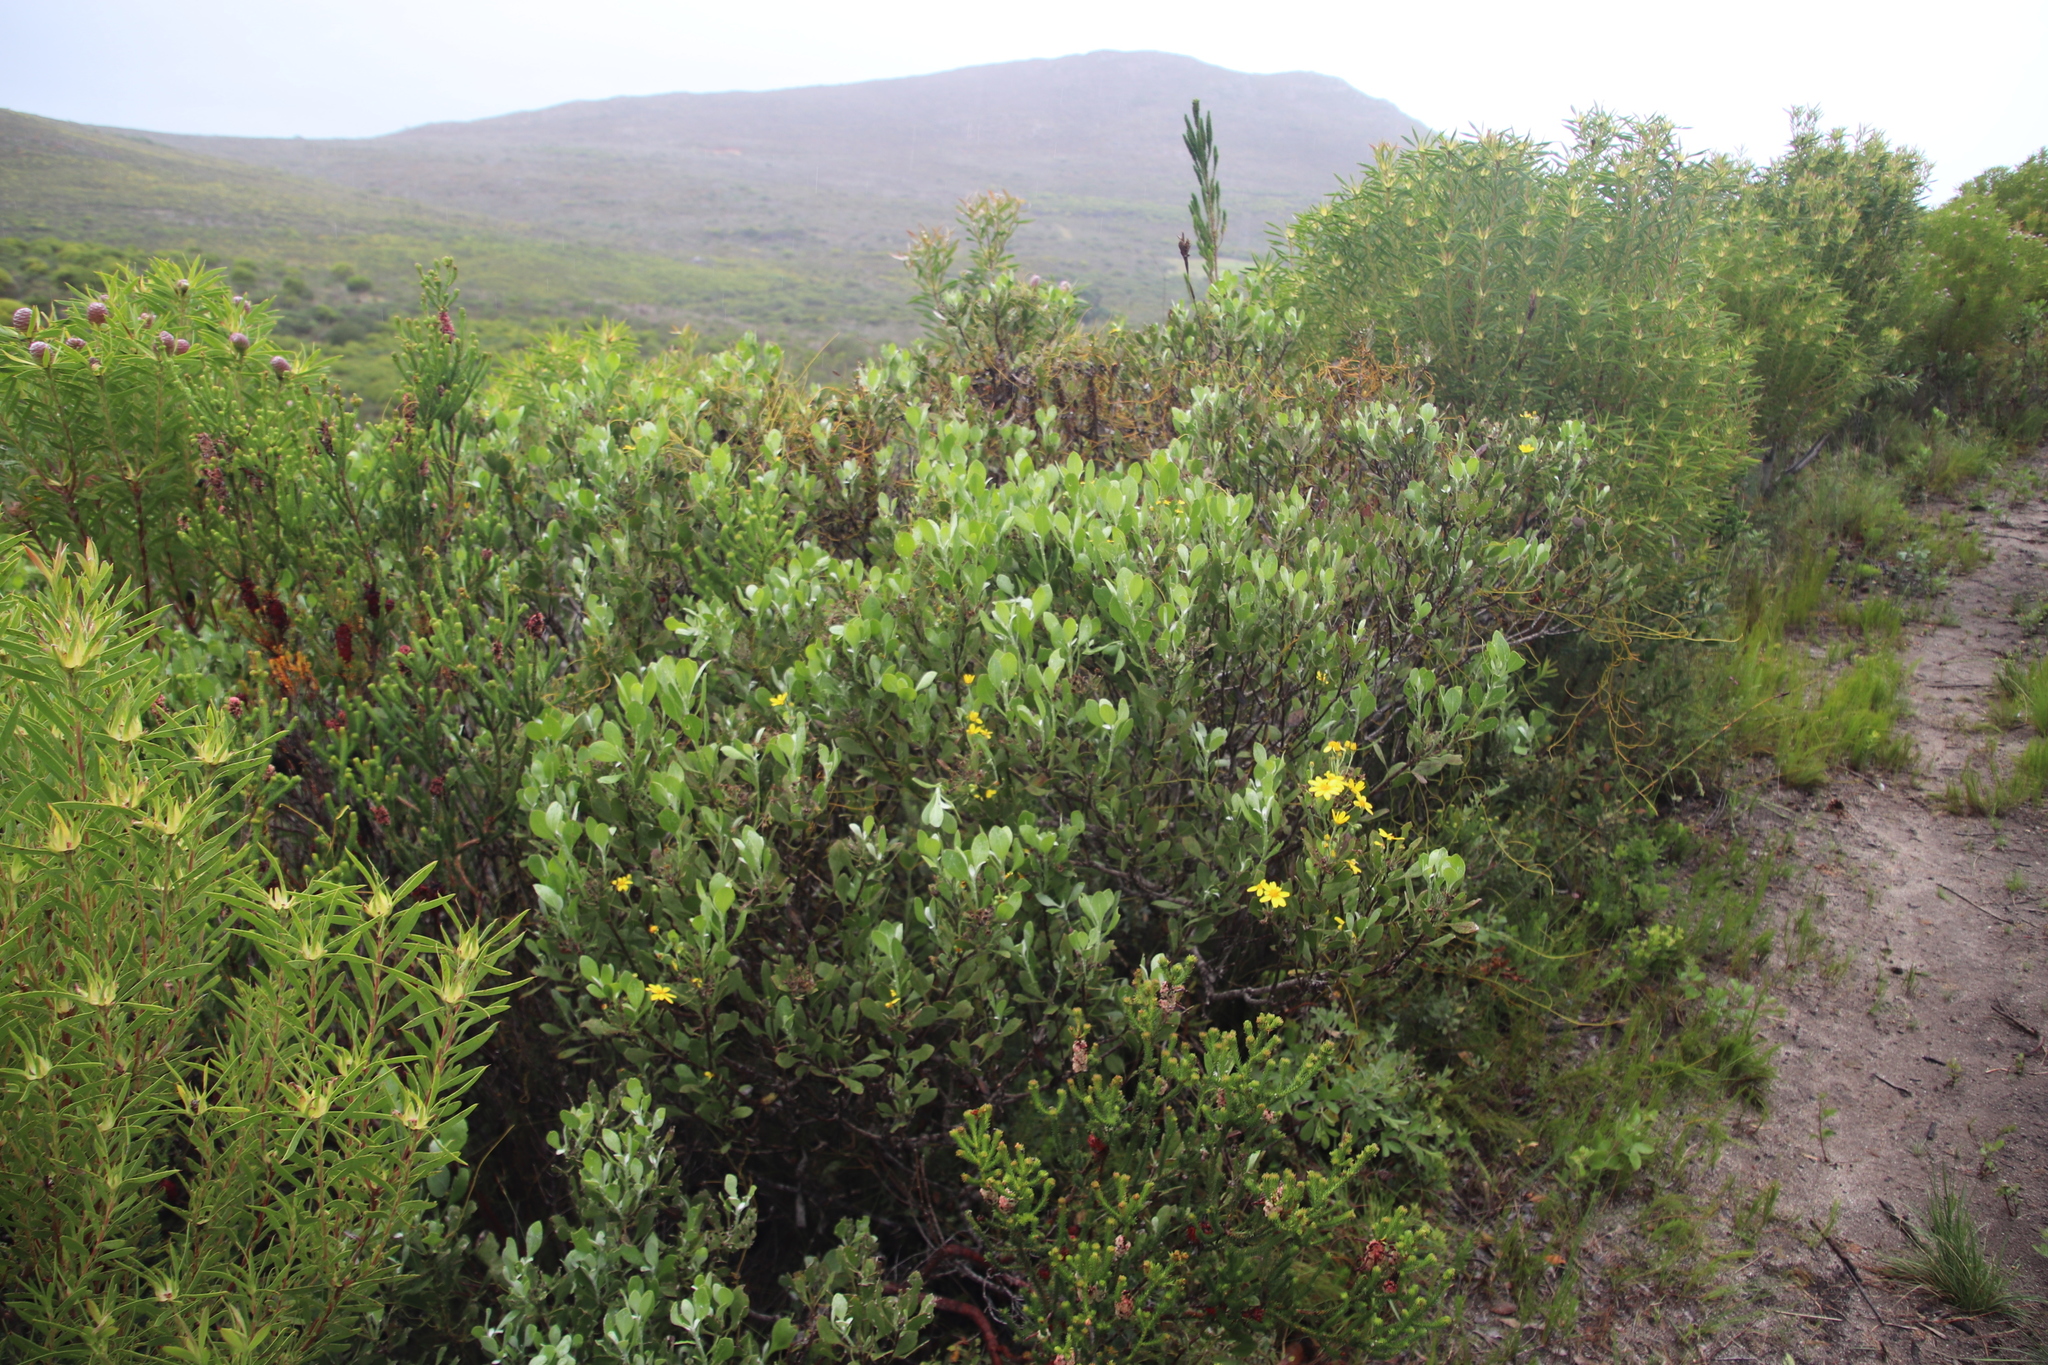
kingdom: Plantae
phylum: Tracheophyta
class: Magnoliopsida
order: Asterales
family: Asteraceae
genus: Osteospermum
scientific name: Osteospermum moniliferum
